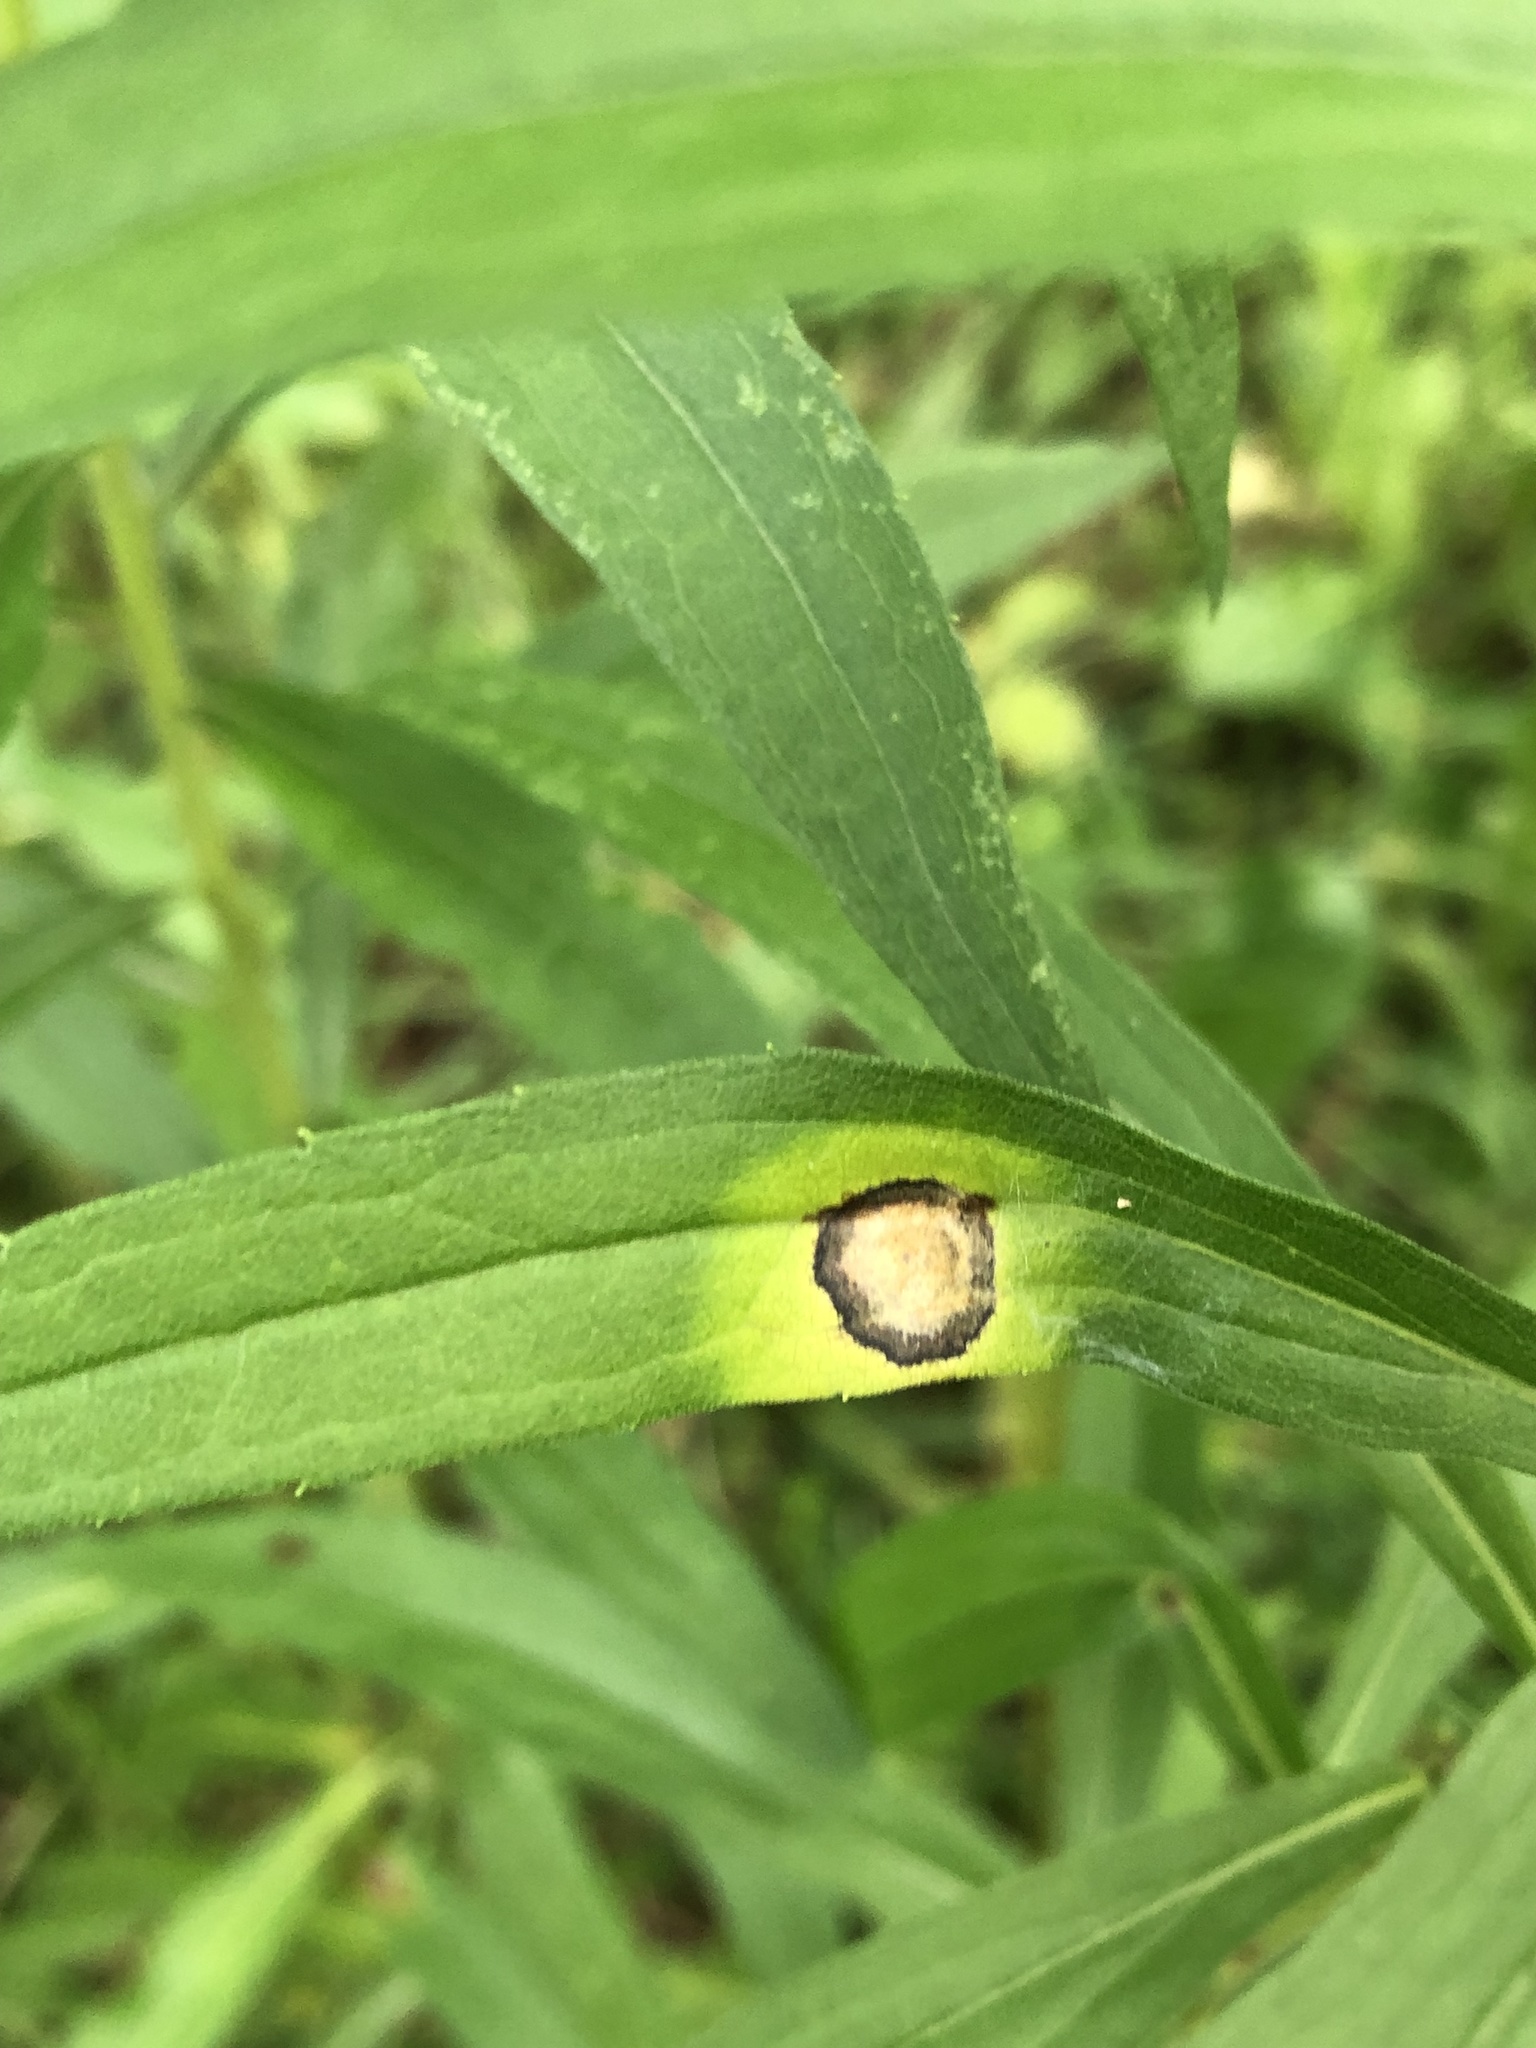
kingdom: Animalia
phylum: Arthropoda
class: Insecta
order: Diptera
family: Cecidomyiidae
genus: Asteromyia
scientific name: Asteromyia carbonifera
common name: Carbonifera goldenrod gall midge
